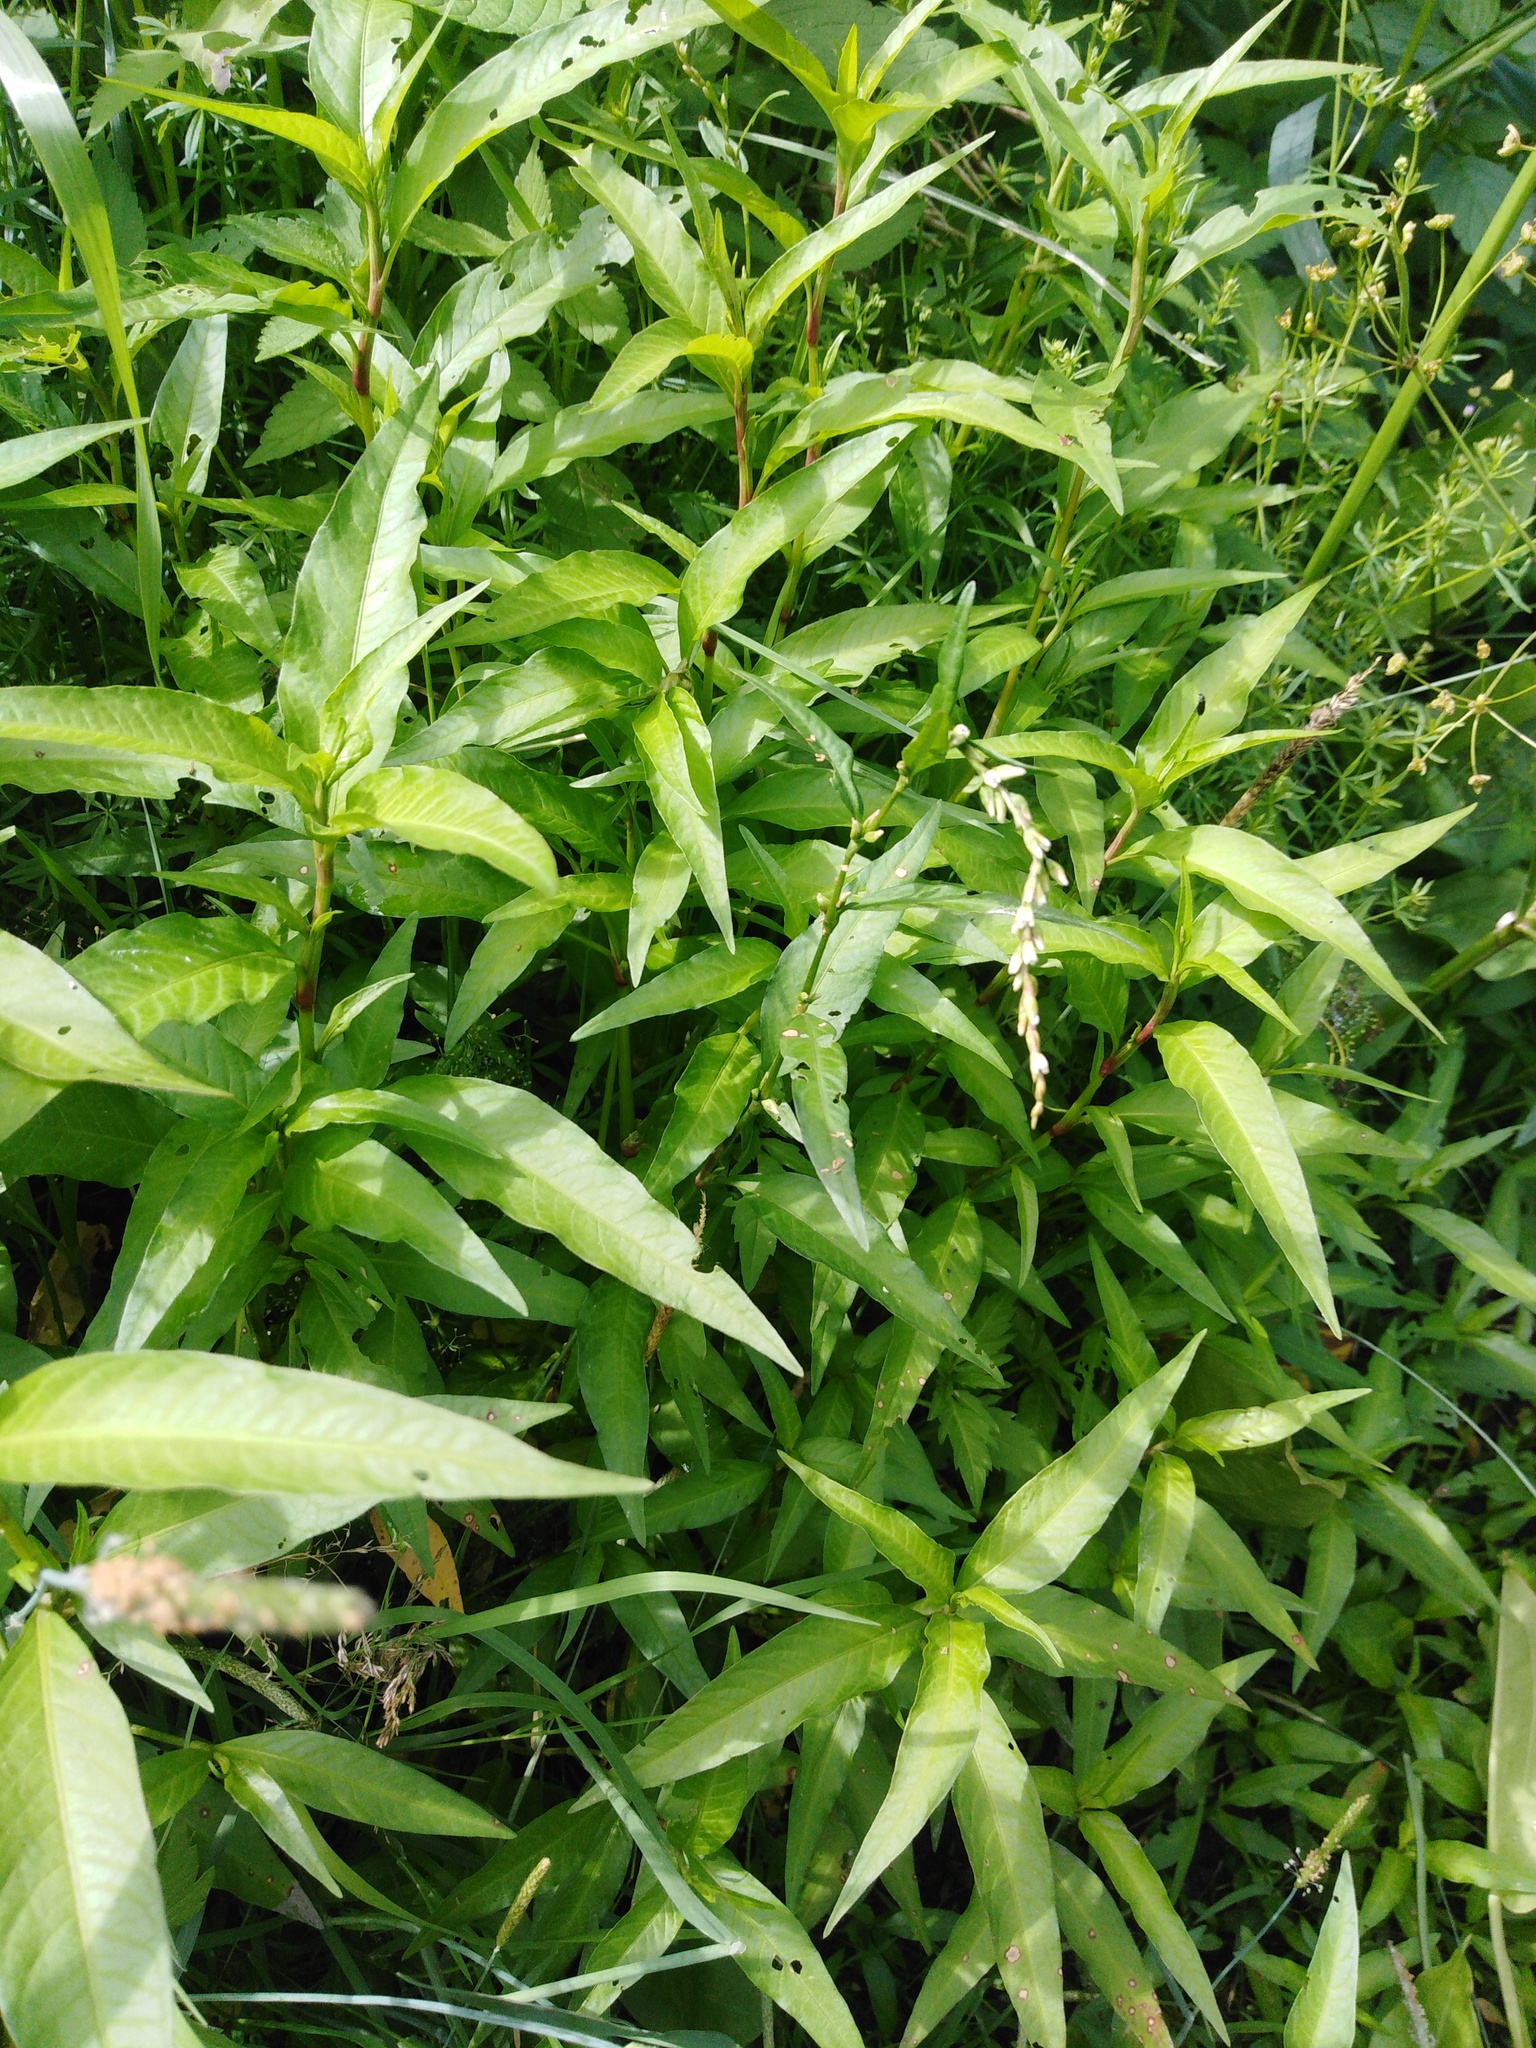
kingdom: Plantae
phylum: Tracheophyta
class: Magnoliopsida
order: Caryophyllales
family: Polygonaceae
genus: Persicaria
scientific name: Persicaria hydropiper
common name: Water-pepper
